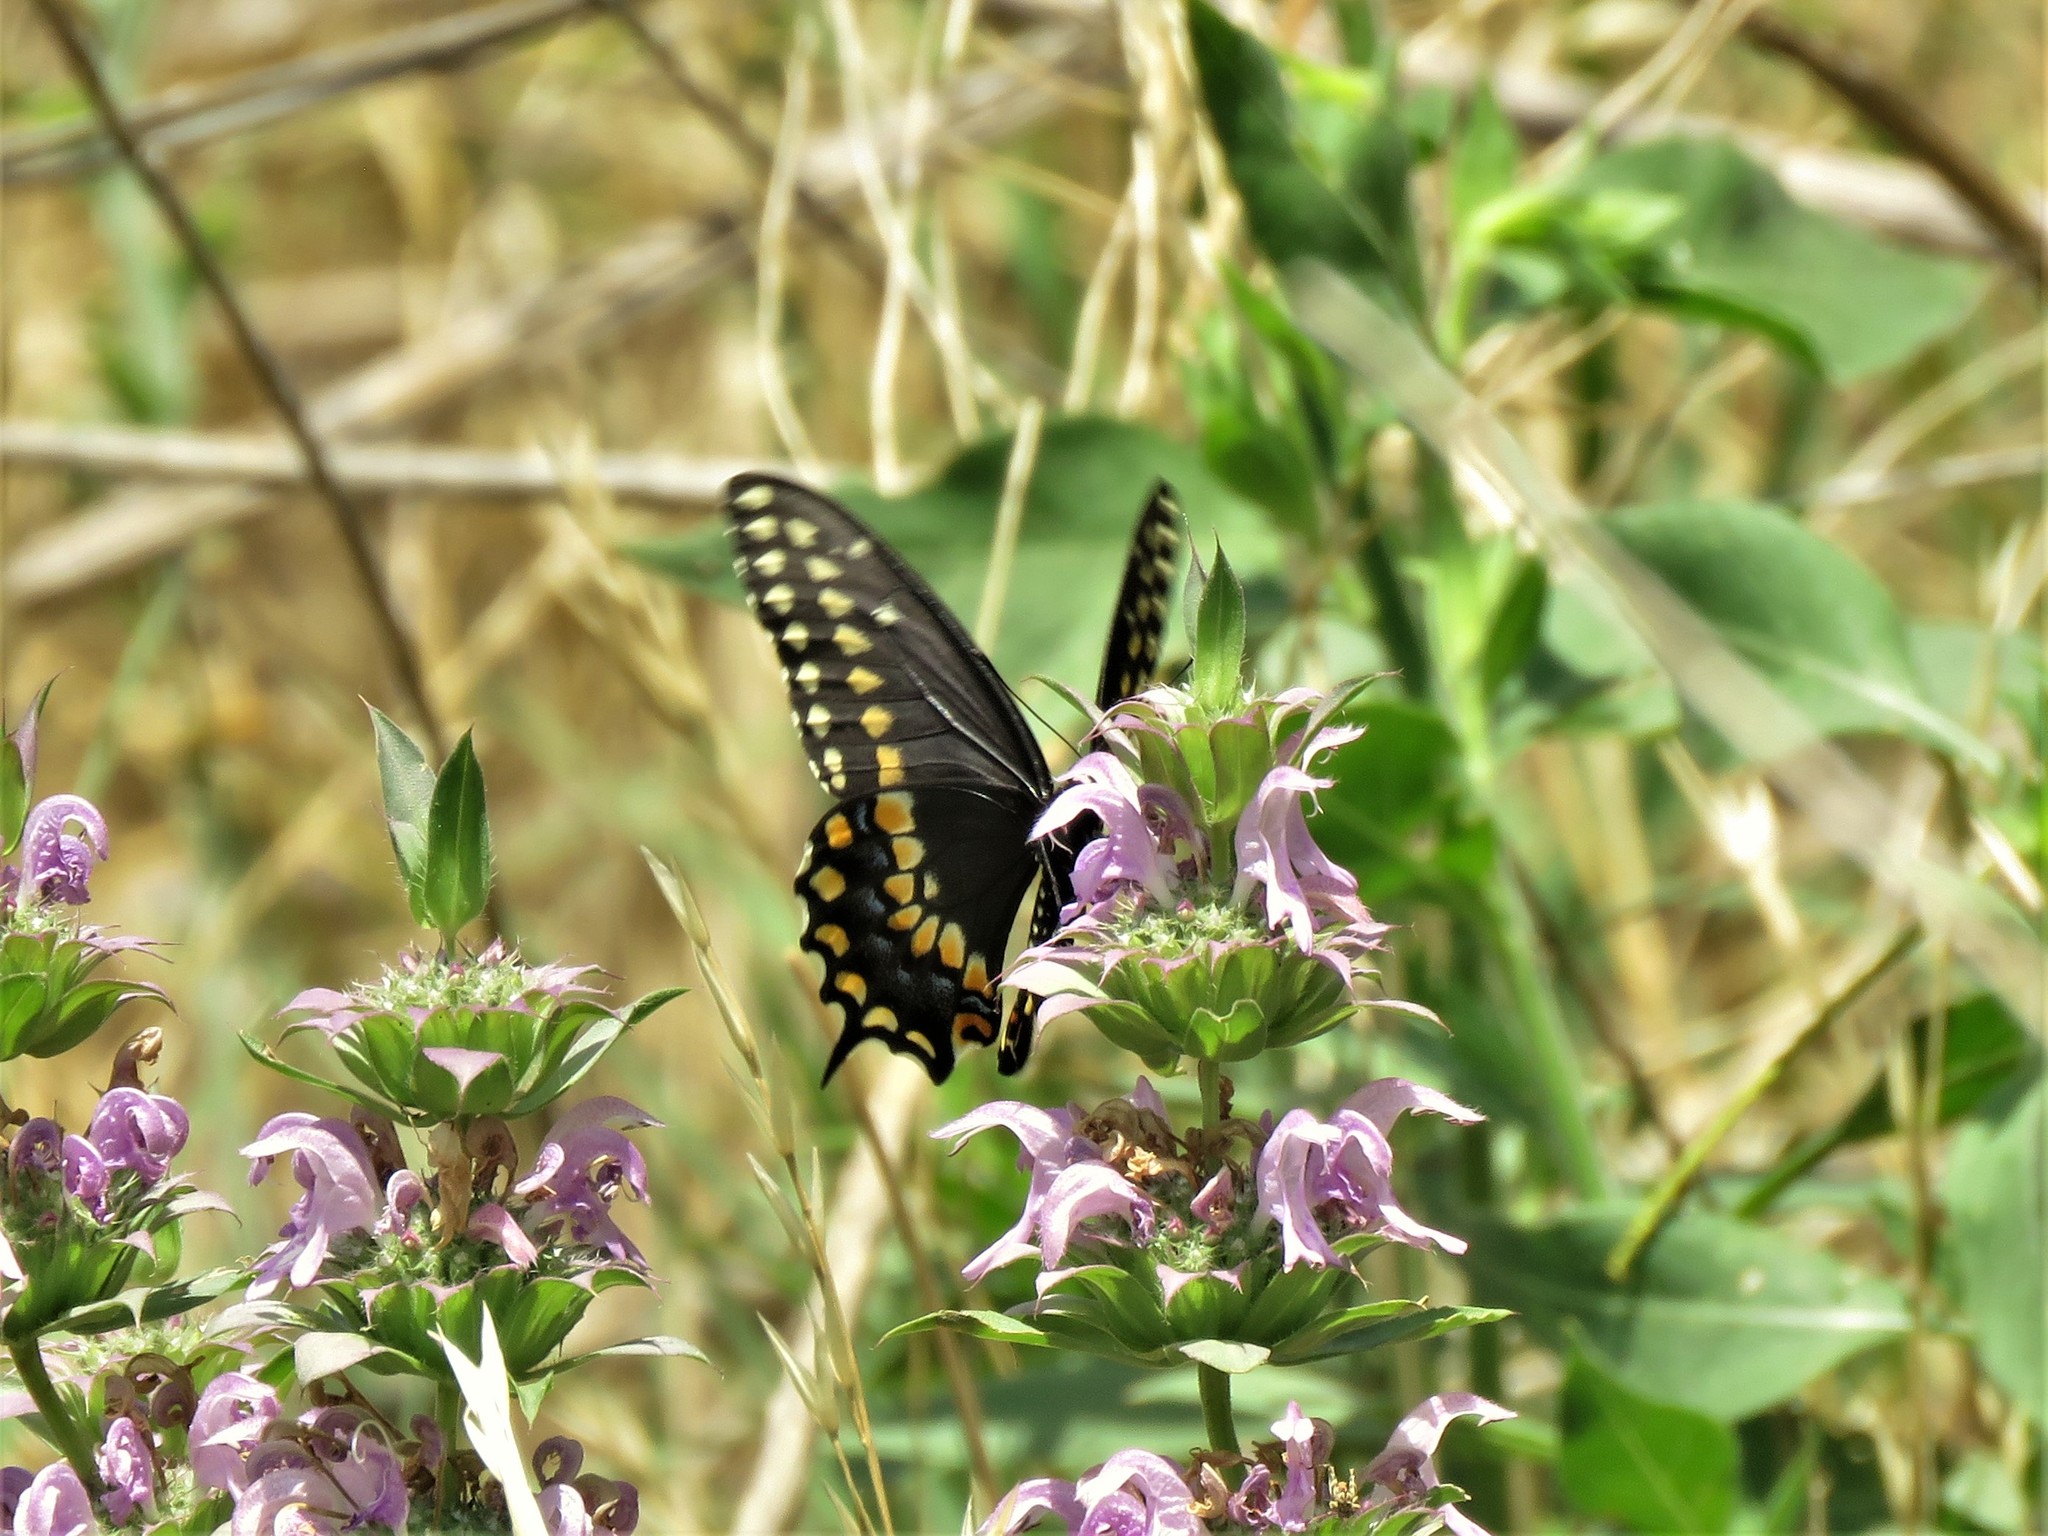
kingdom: Animalia
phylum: Arthropoda
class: Insecta
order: Lepidoptera
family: Papilionidae
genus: Papilio
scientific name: Papilio polyxenes
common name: Black swallowtail
